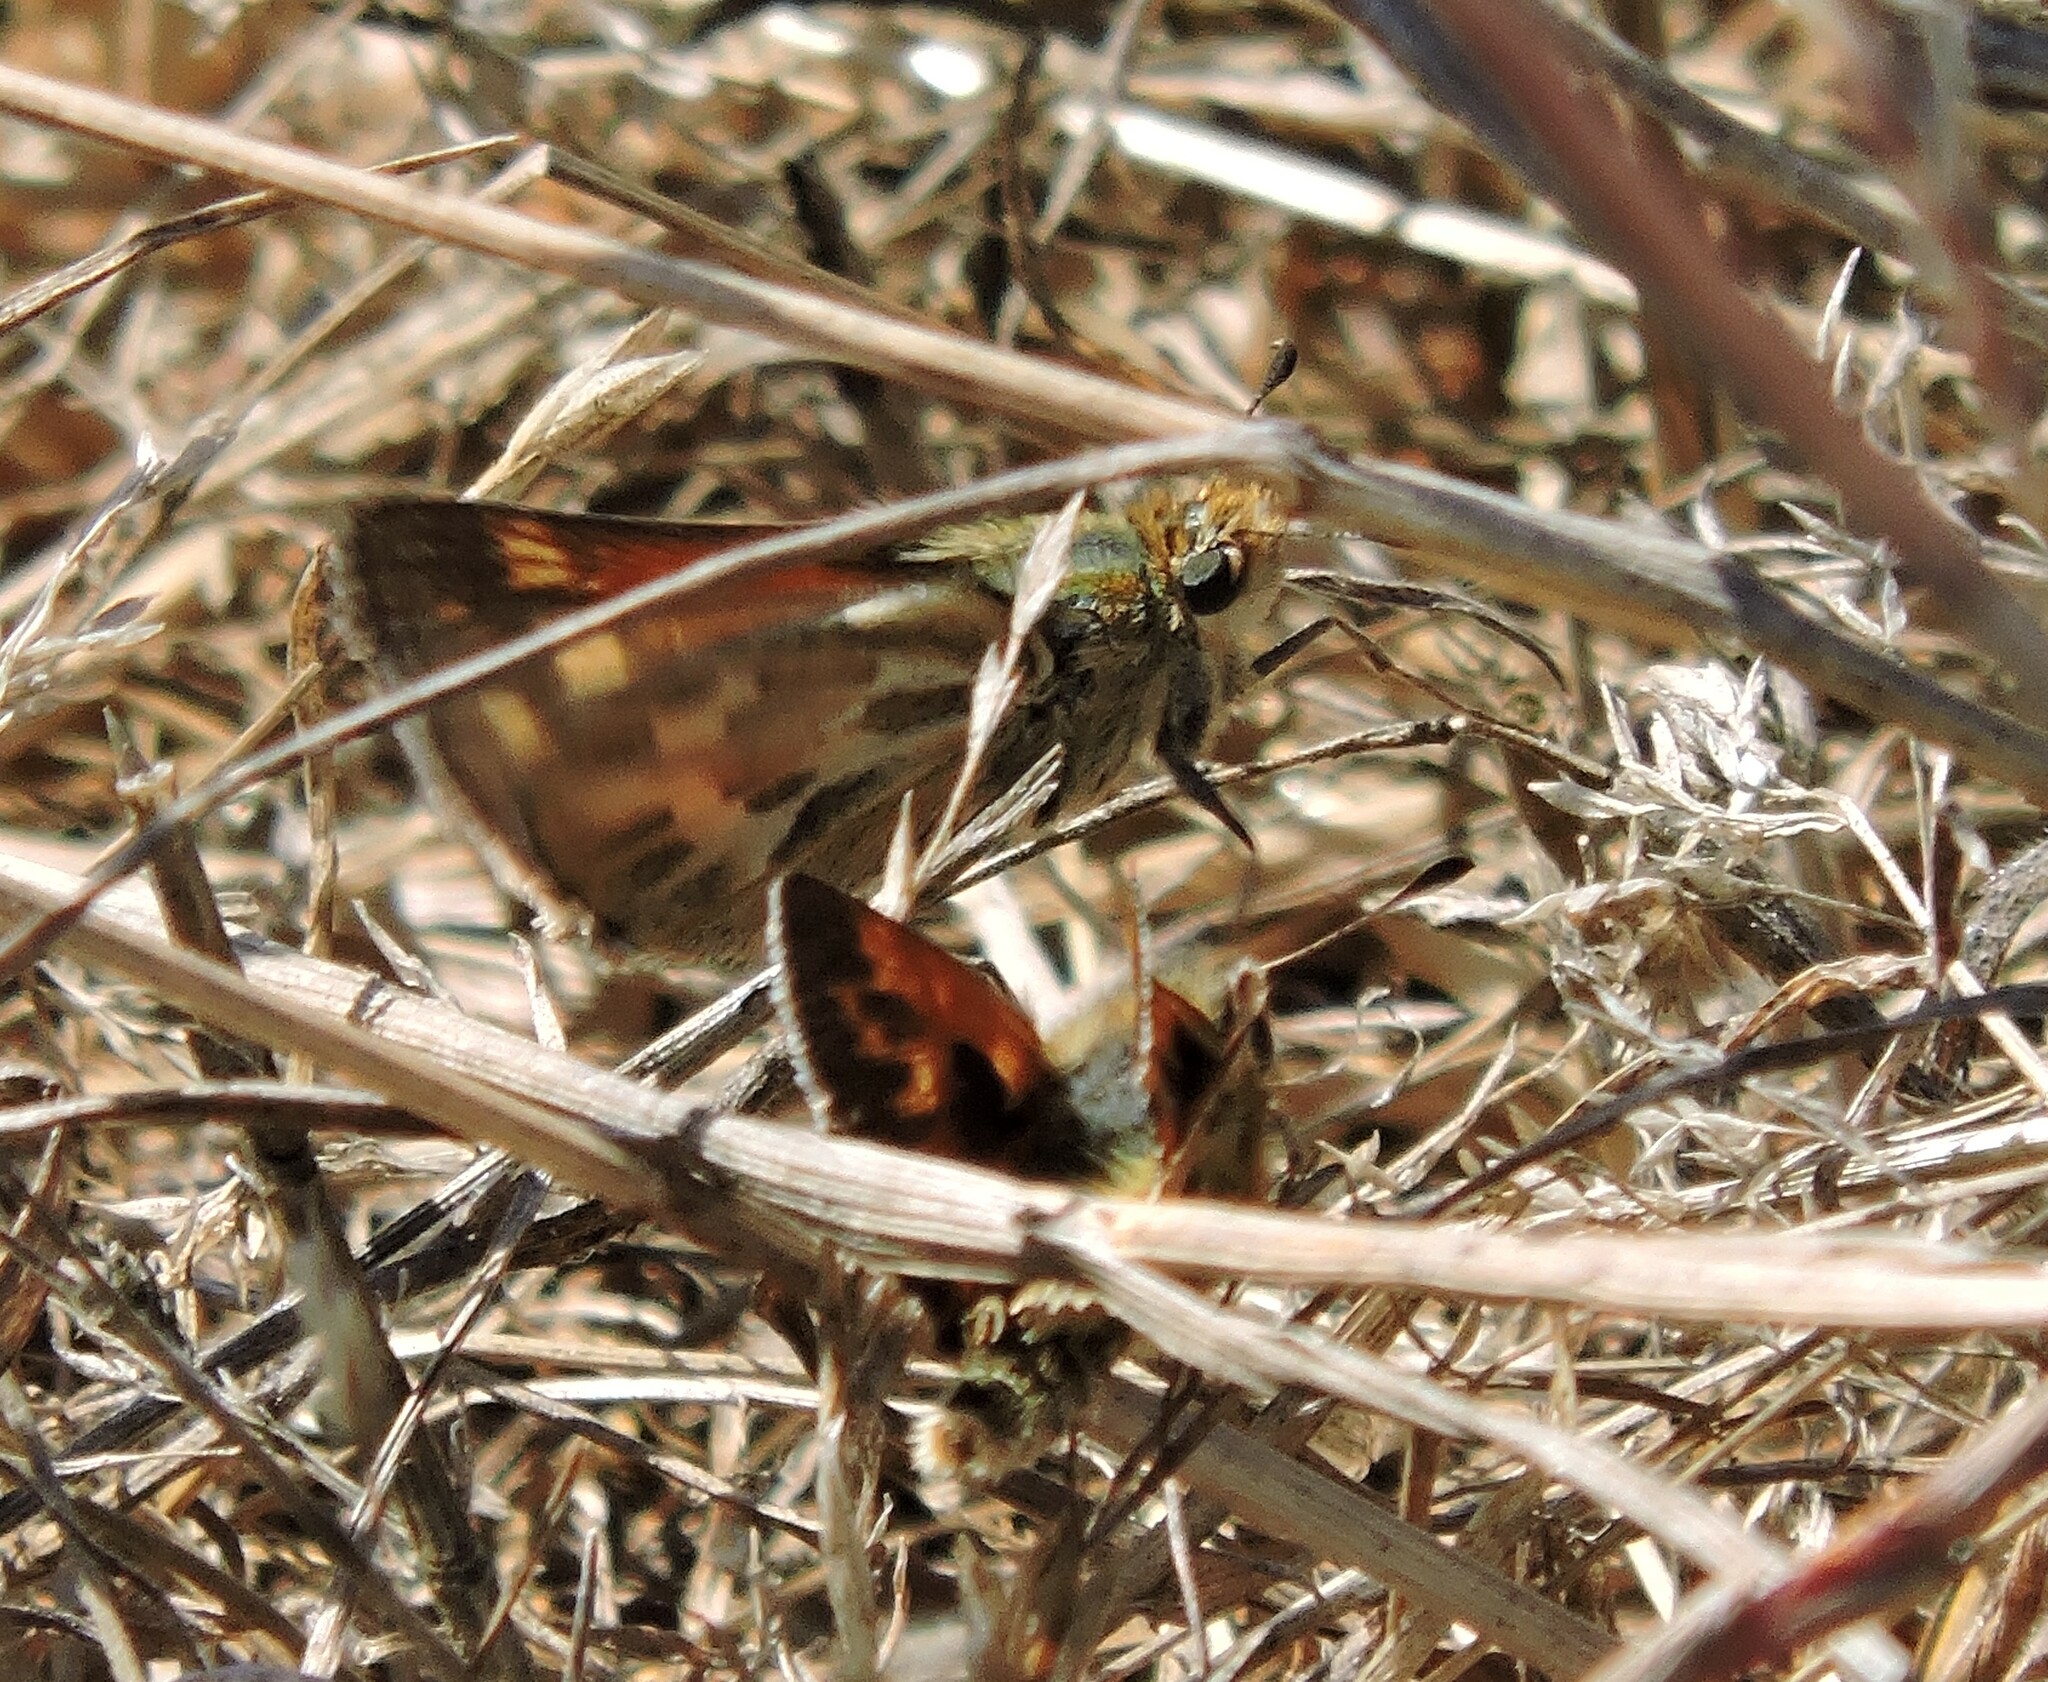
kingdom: Animalia
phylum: Arthropoda
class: Insecta
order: Lepidoptera
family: Hesperiidae
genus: Polites
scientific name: Polites sabuleti
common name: Sandhill skipper
